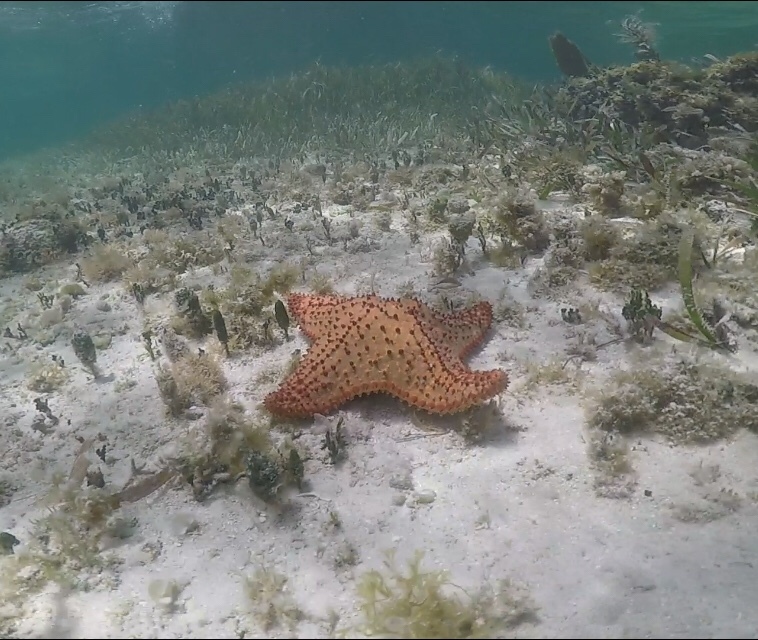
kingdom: Animalia
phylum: Echinodermata
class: Asteroidea
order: Valvatida
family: Oreasteridae
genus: Oreaster
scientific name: Oreaster reticulatus
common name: Cushion sea star
